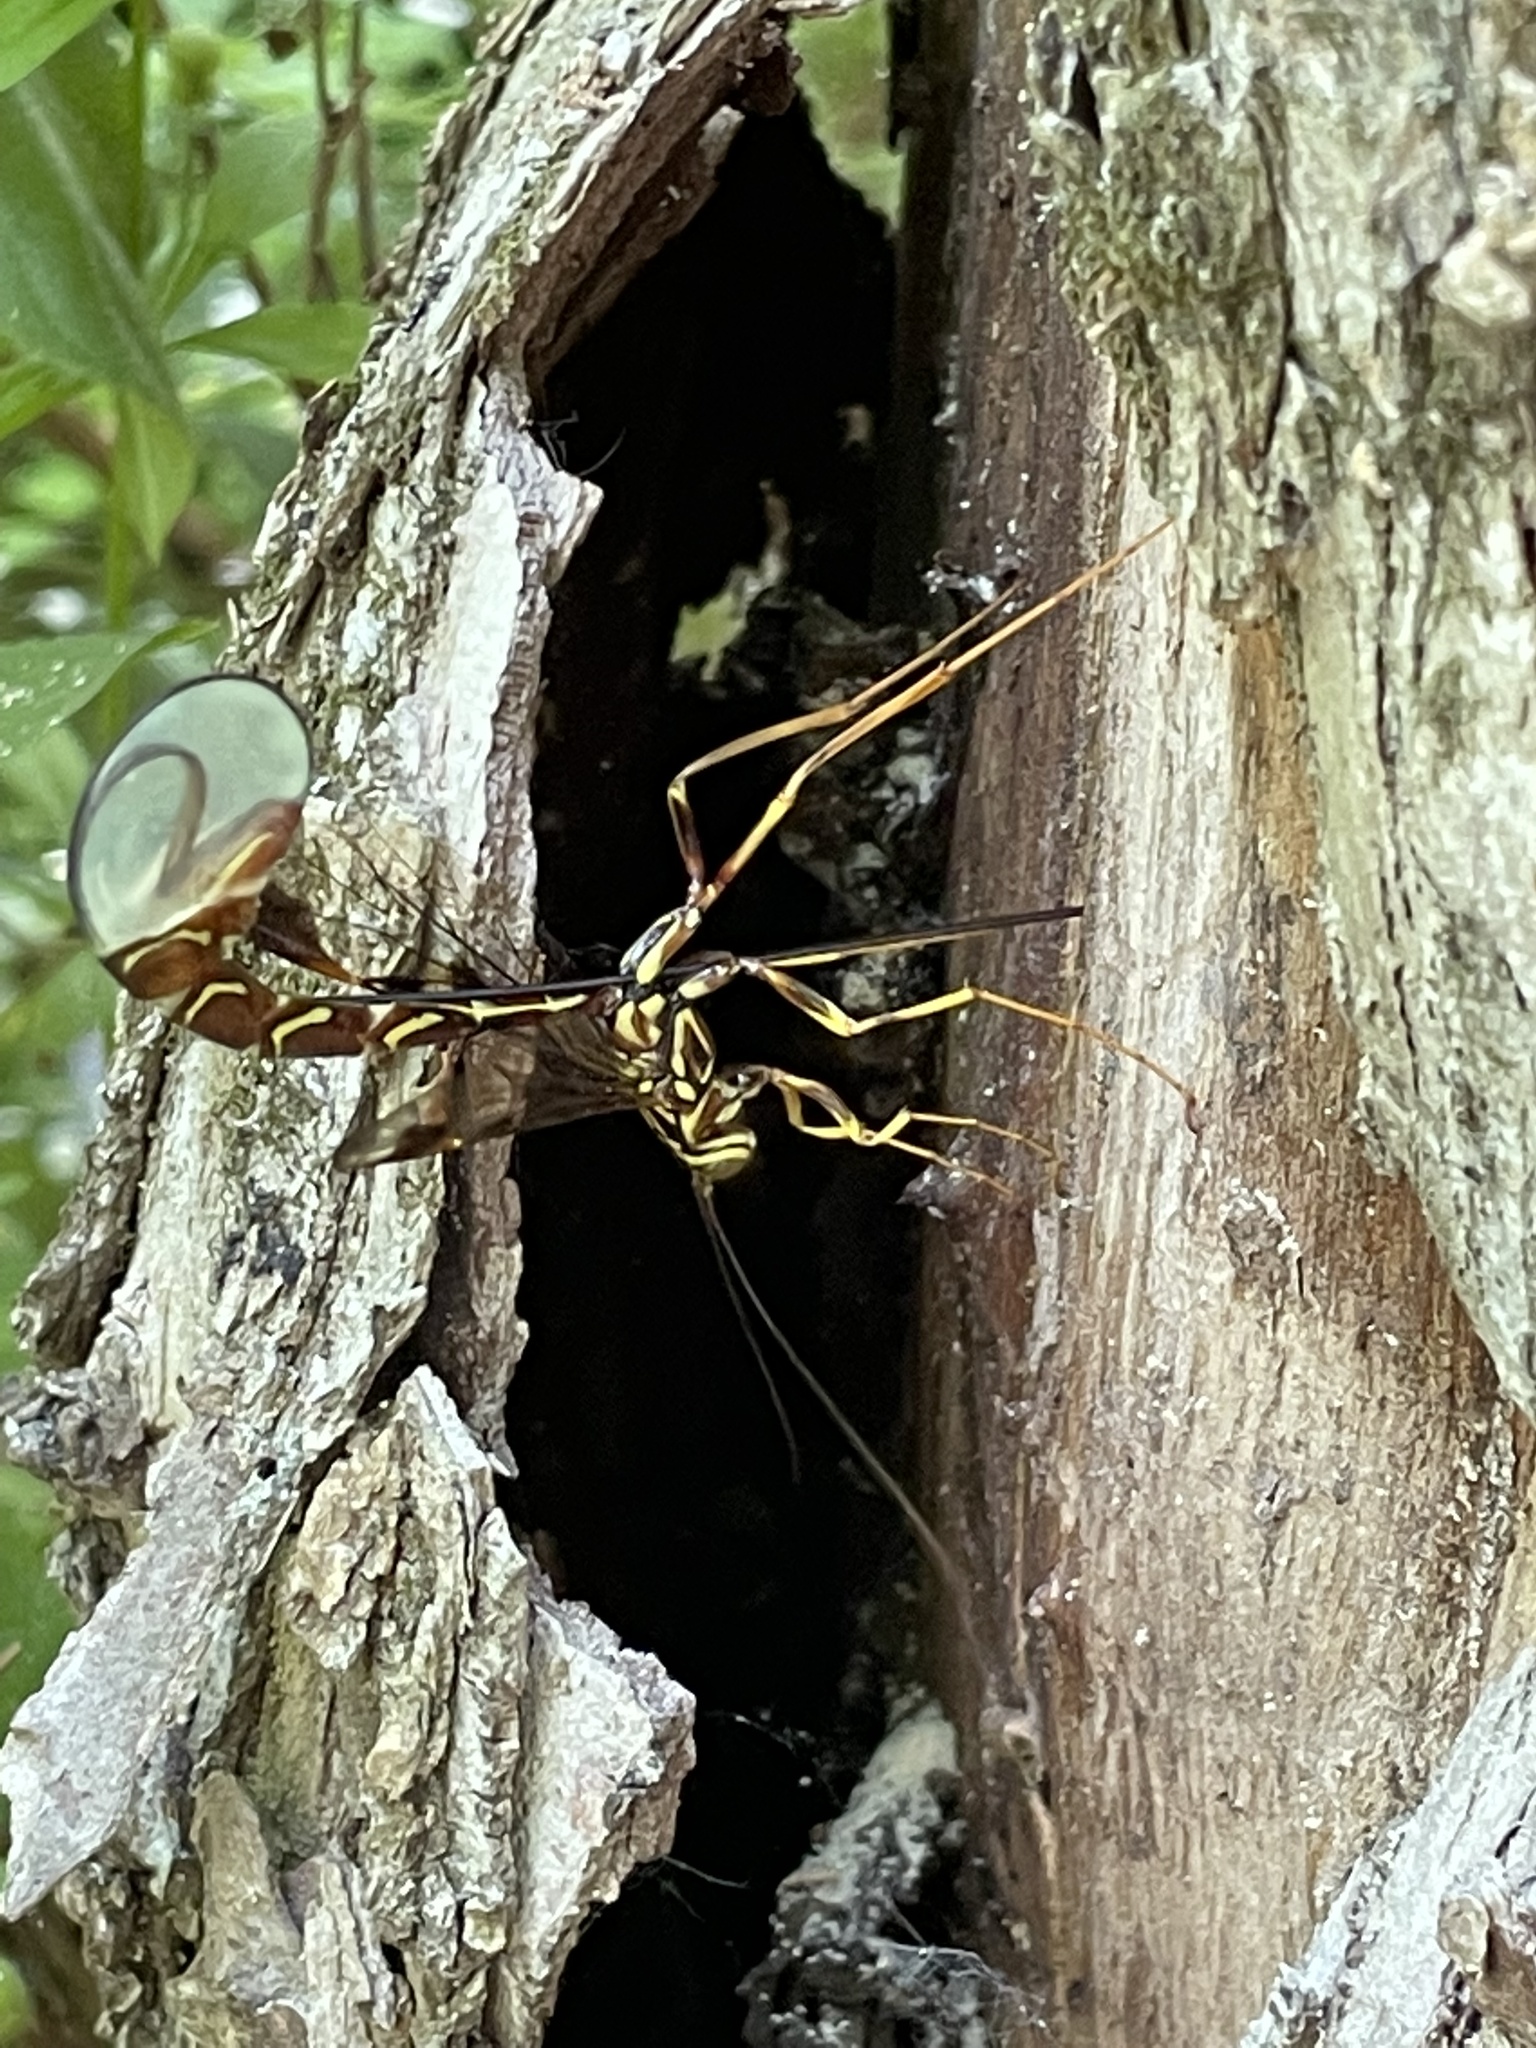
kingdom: Animalia
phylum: Arthropoda
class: Insecta
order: Hymenoptera
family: Ichneumonidae
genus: Megarhyssa
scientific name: Megarhyssa macrura
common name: Long-tailed giant ichneumonid wasp
